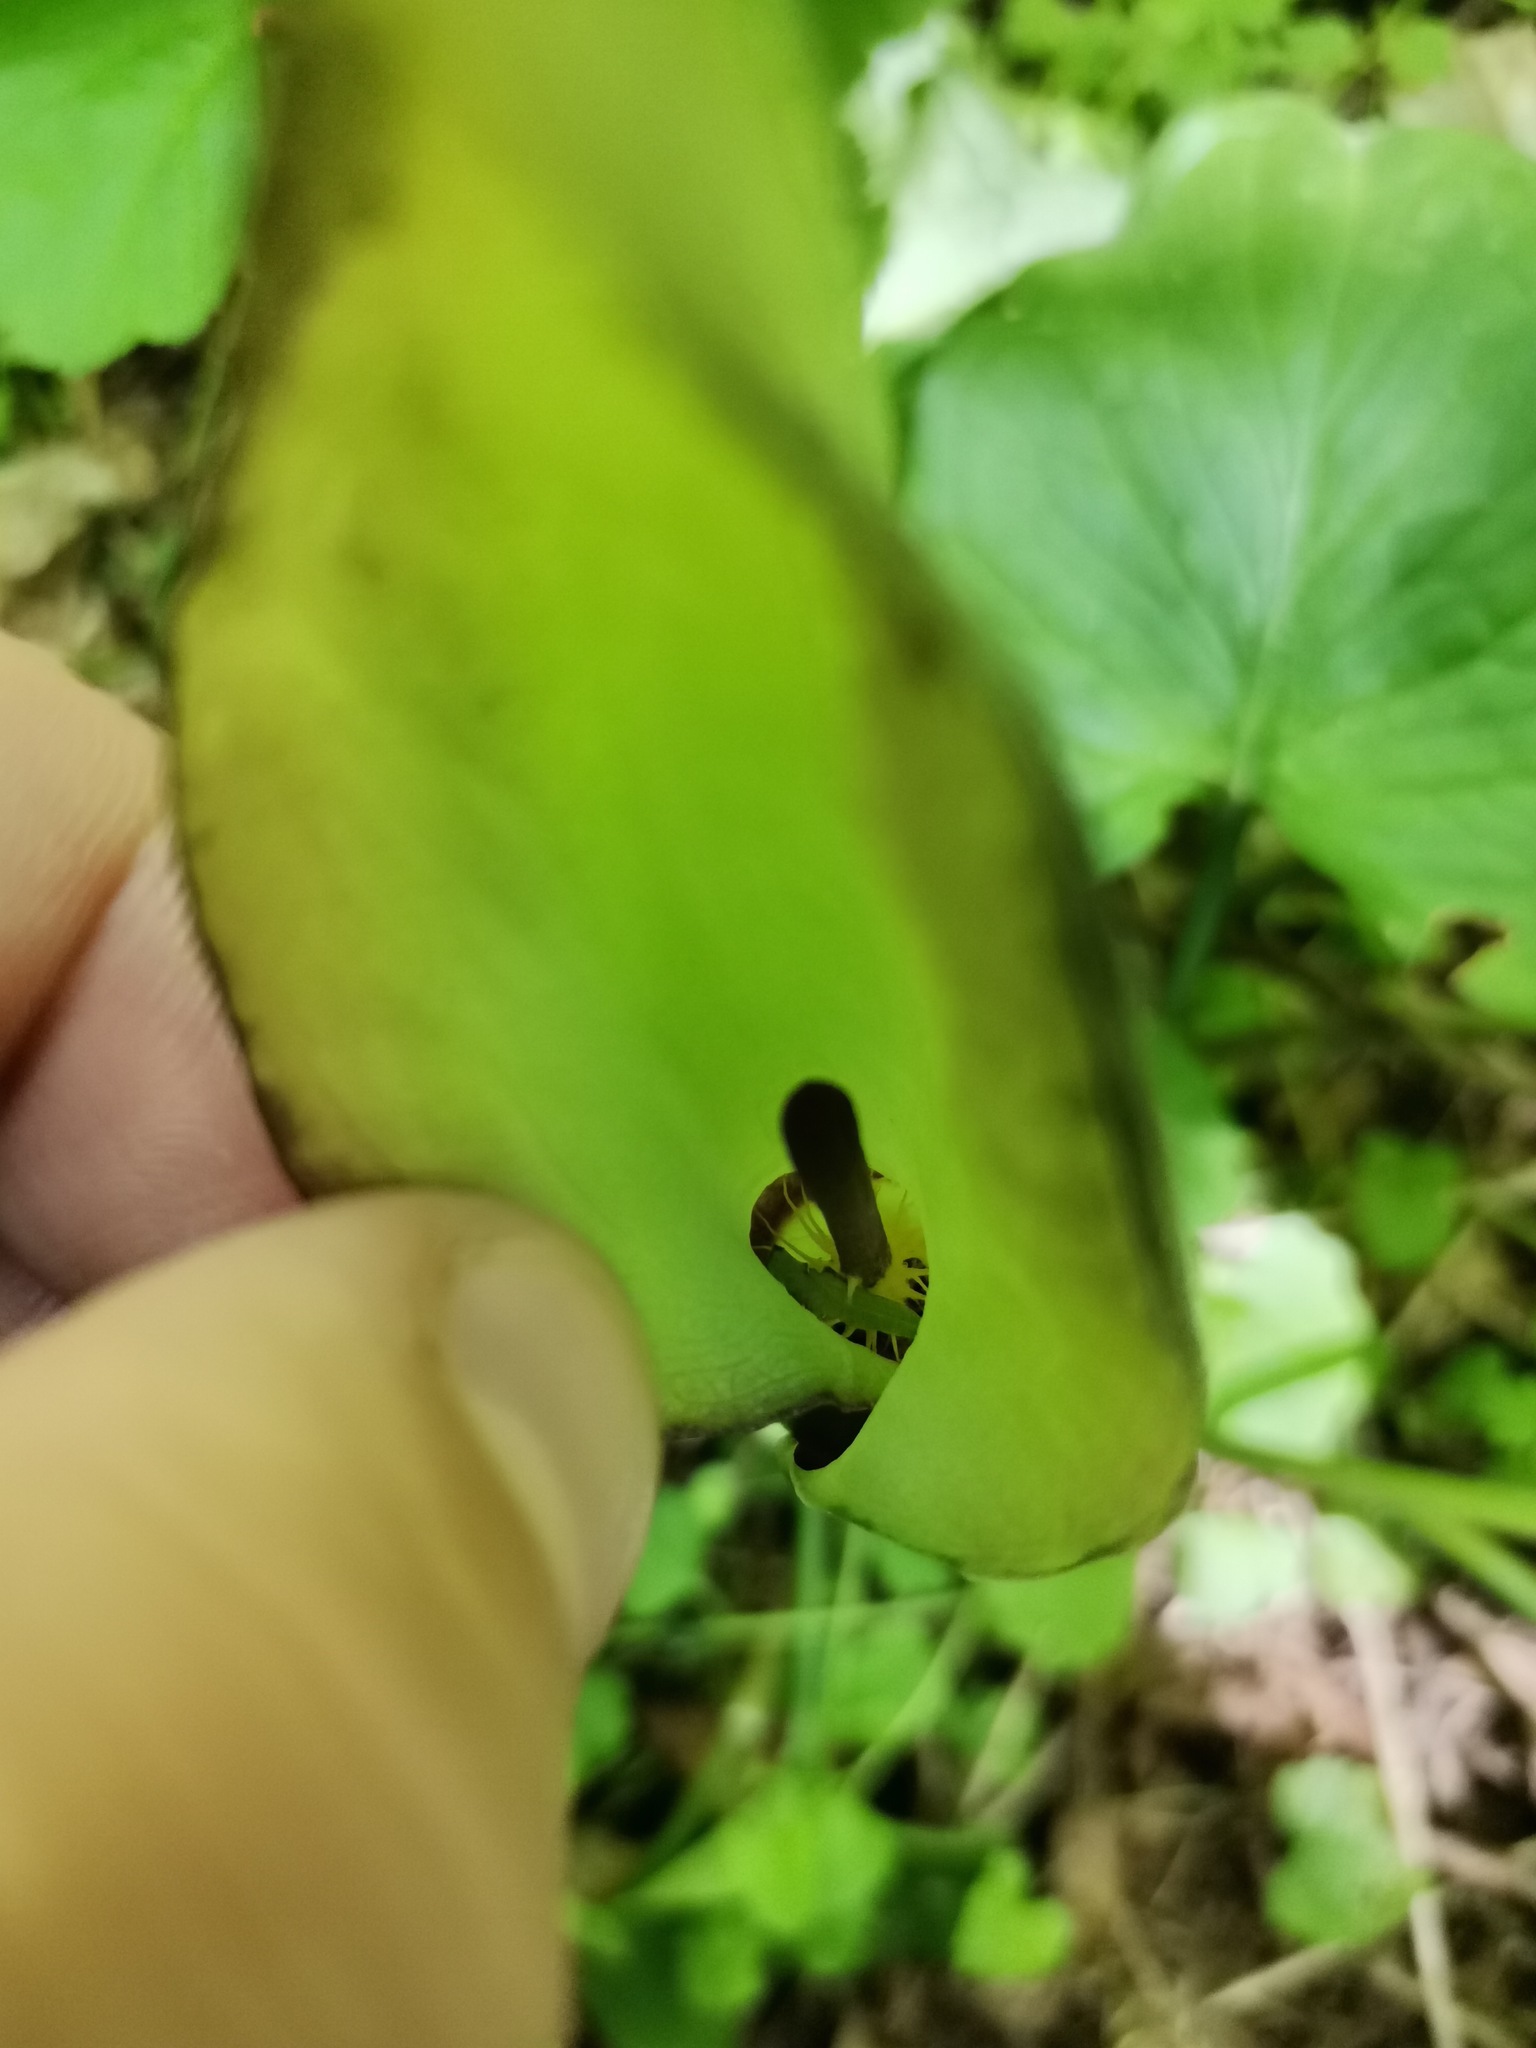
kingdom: Plantae
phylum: Tracheophyta
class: Liliopsida
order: Alismatales
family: Araceae
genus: Arum
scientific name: Arum cylindraceum
